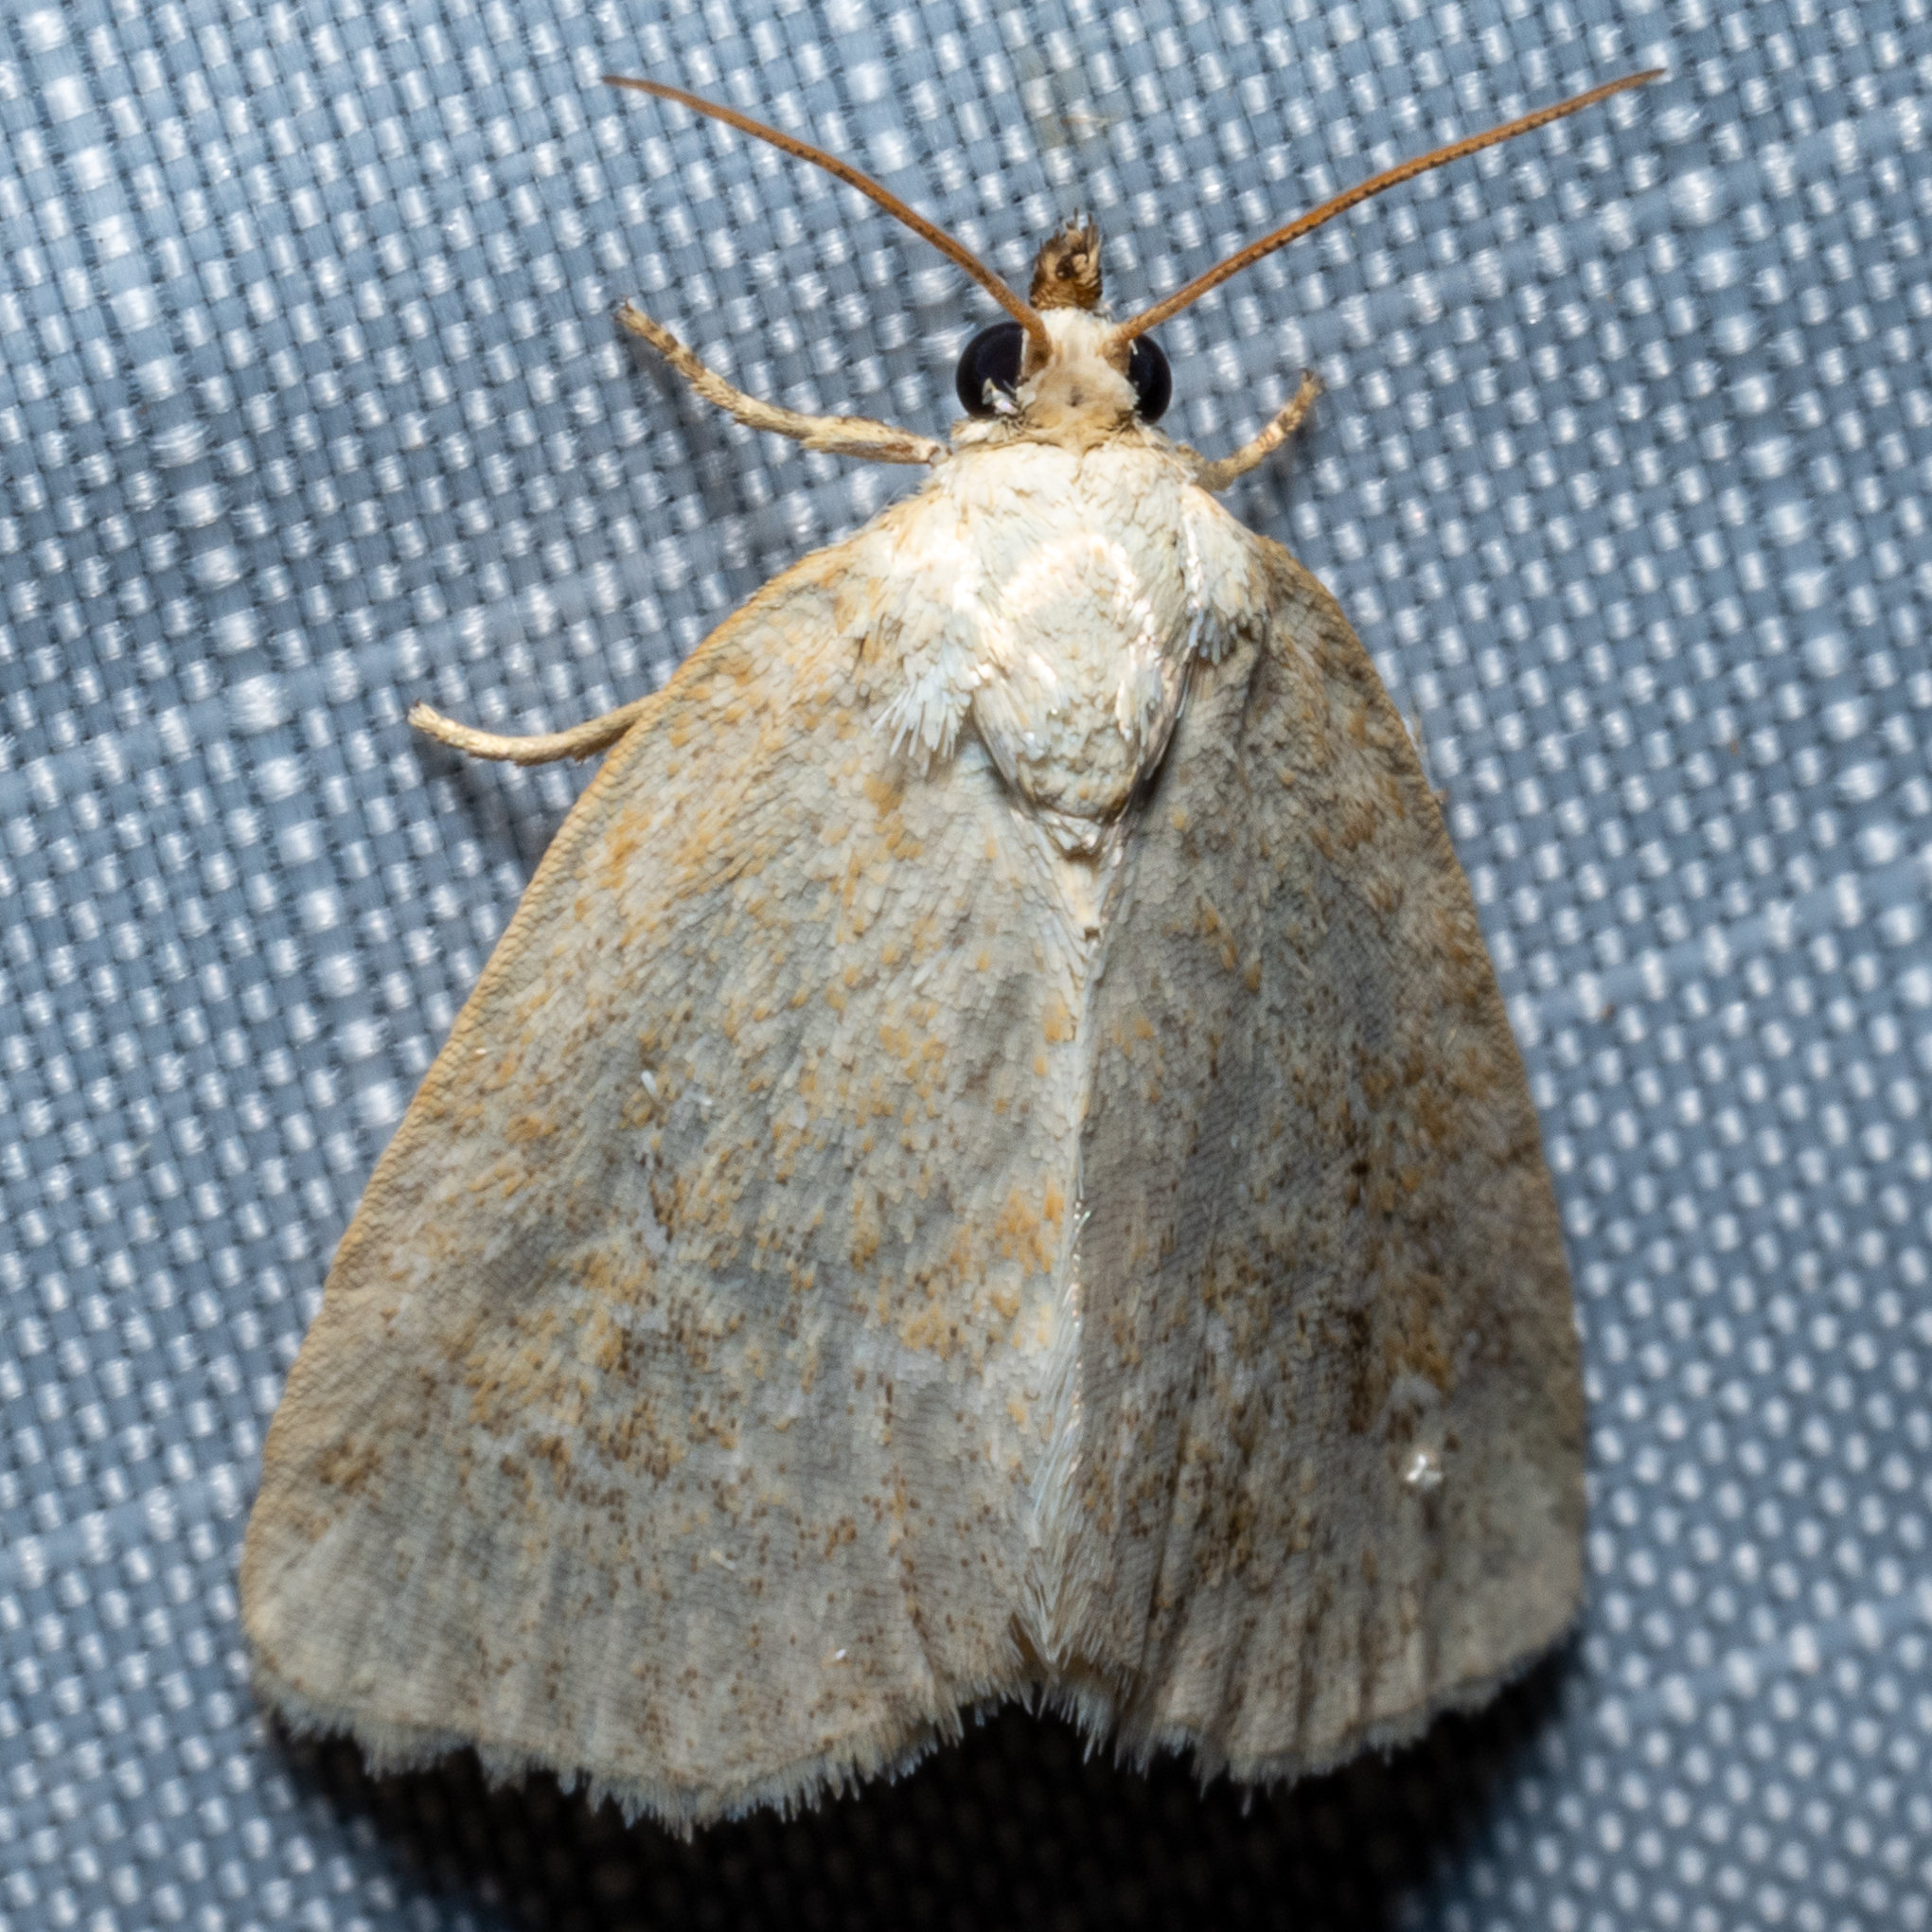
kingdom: Animalia
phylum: Arthropoda
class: Insecta
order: Lepidoptera
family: Noctuidae
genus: Protodeltote
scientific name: Protodeltote albidula
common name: Pale glyph
